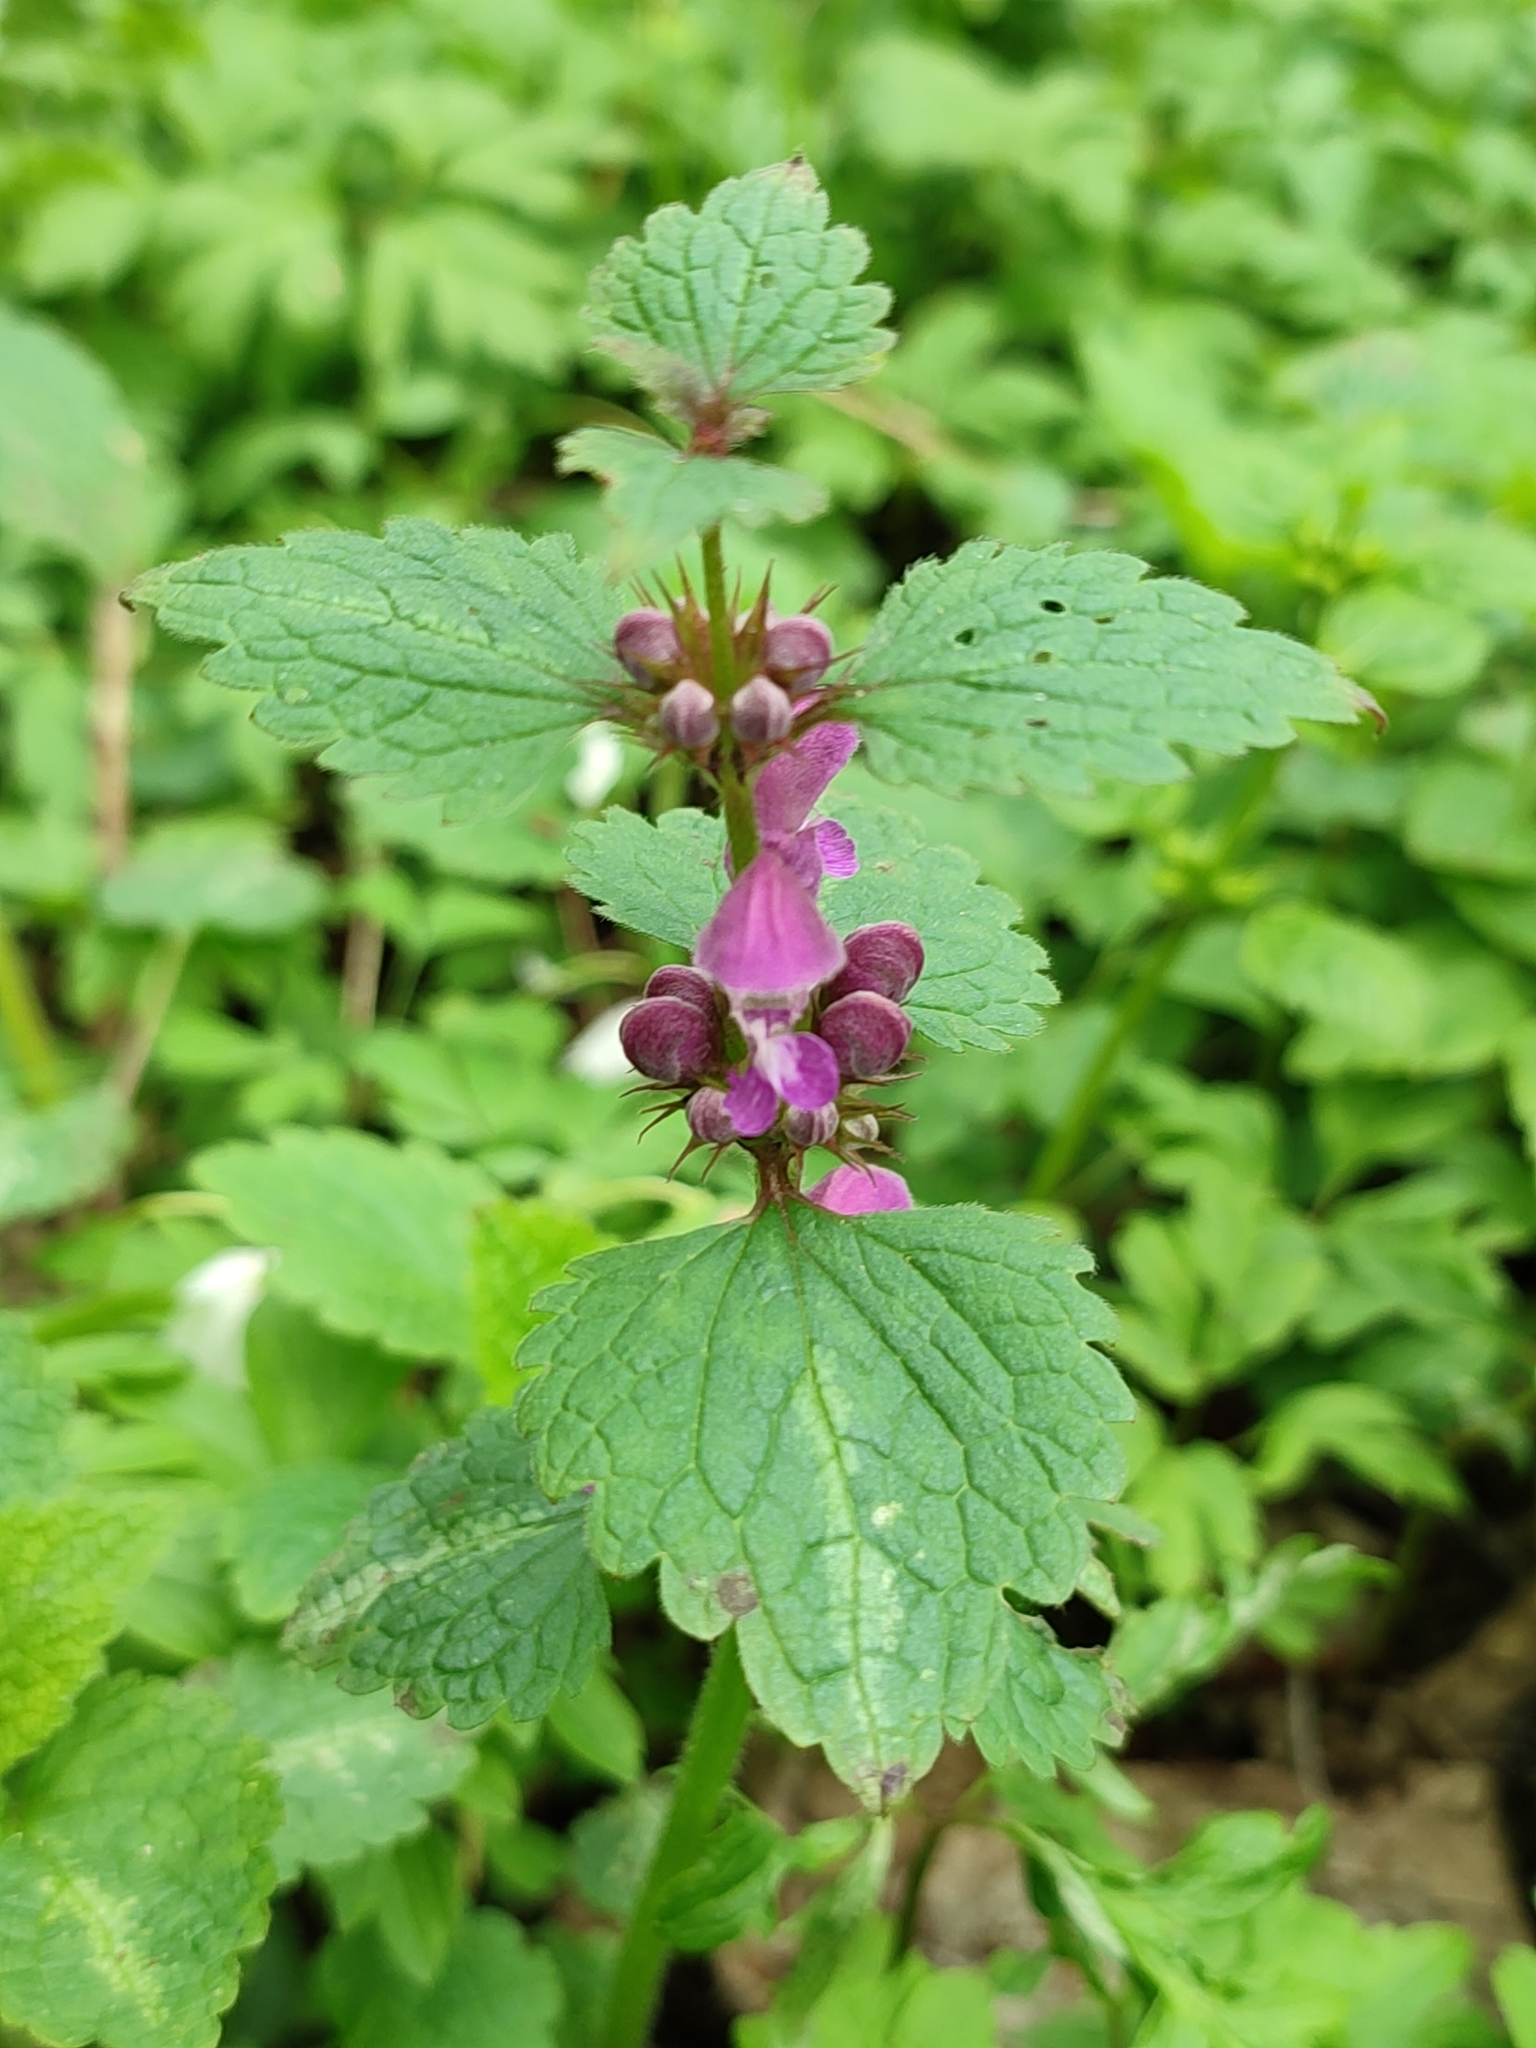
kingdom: Plantae
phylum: Tracheophyta
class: Magnoliopsida
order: Lamiales
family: Lamiaceae
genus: Lamium
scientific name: Lamium maculatum
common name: Spotted dead-nettle
